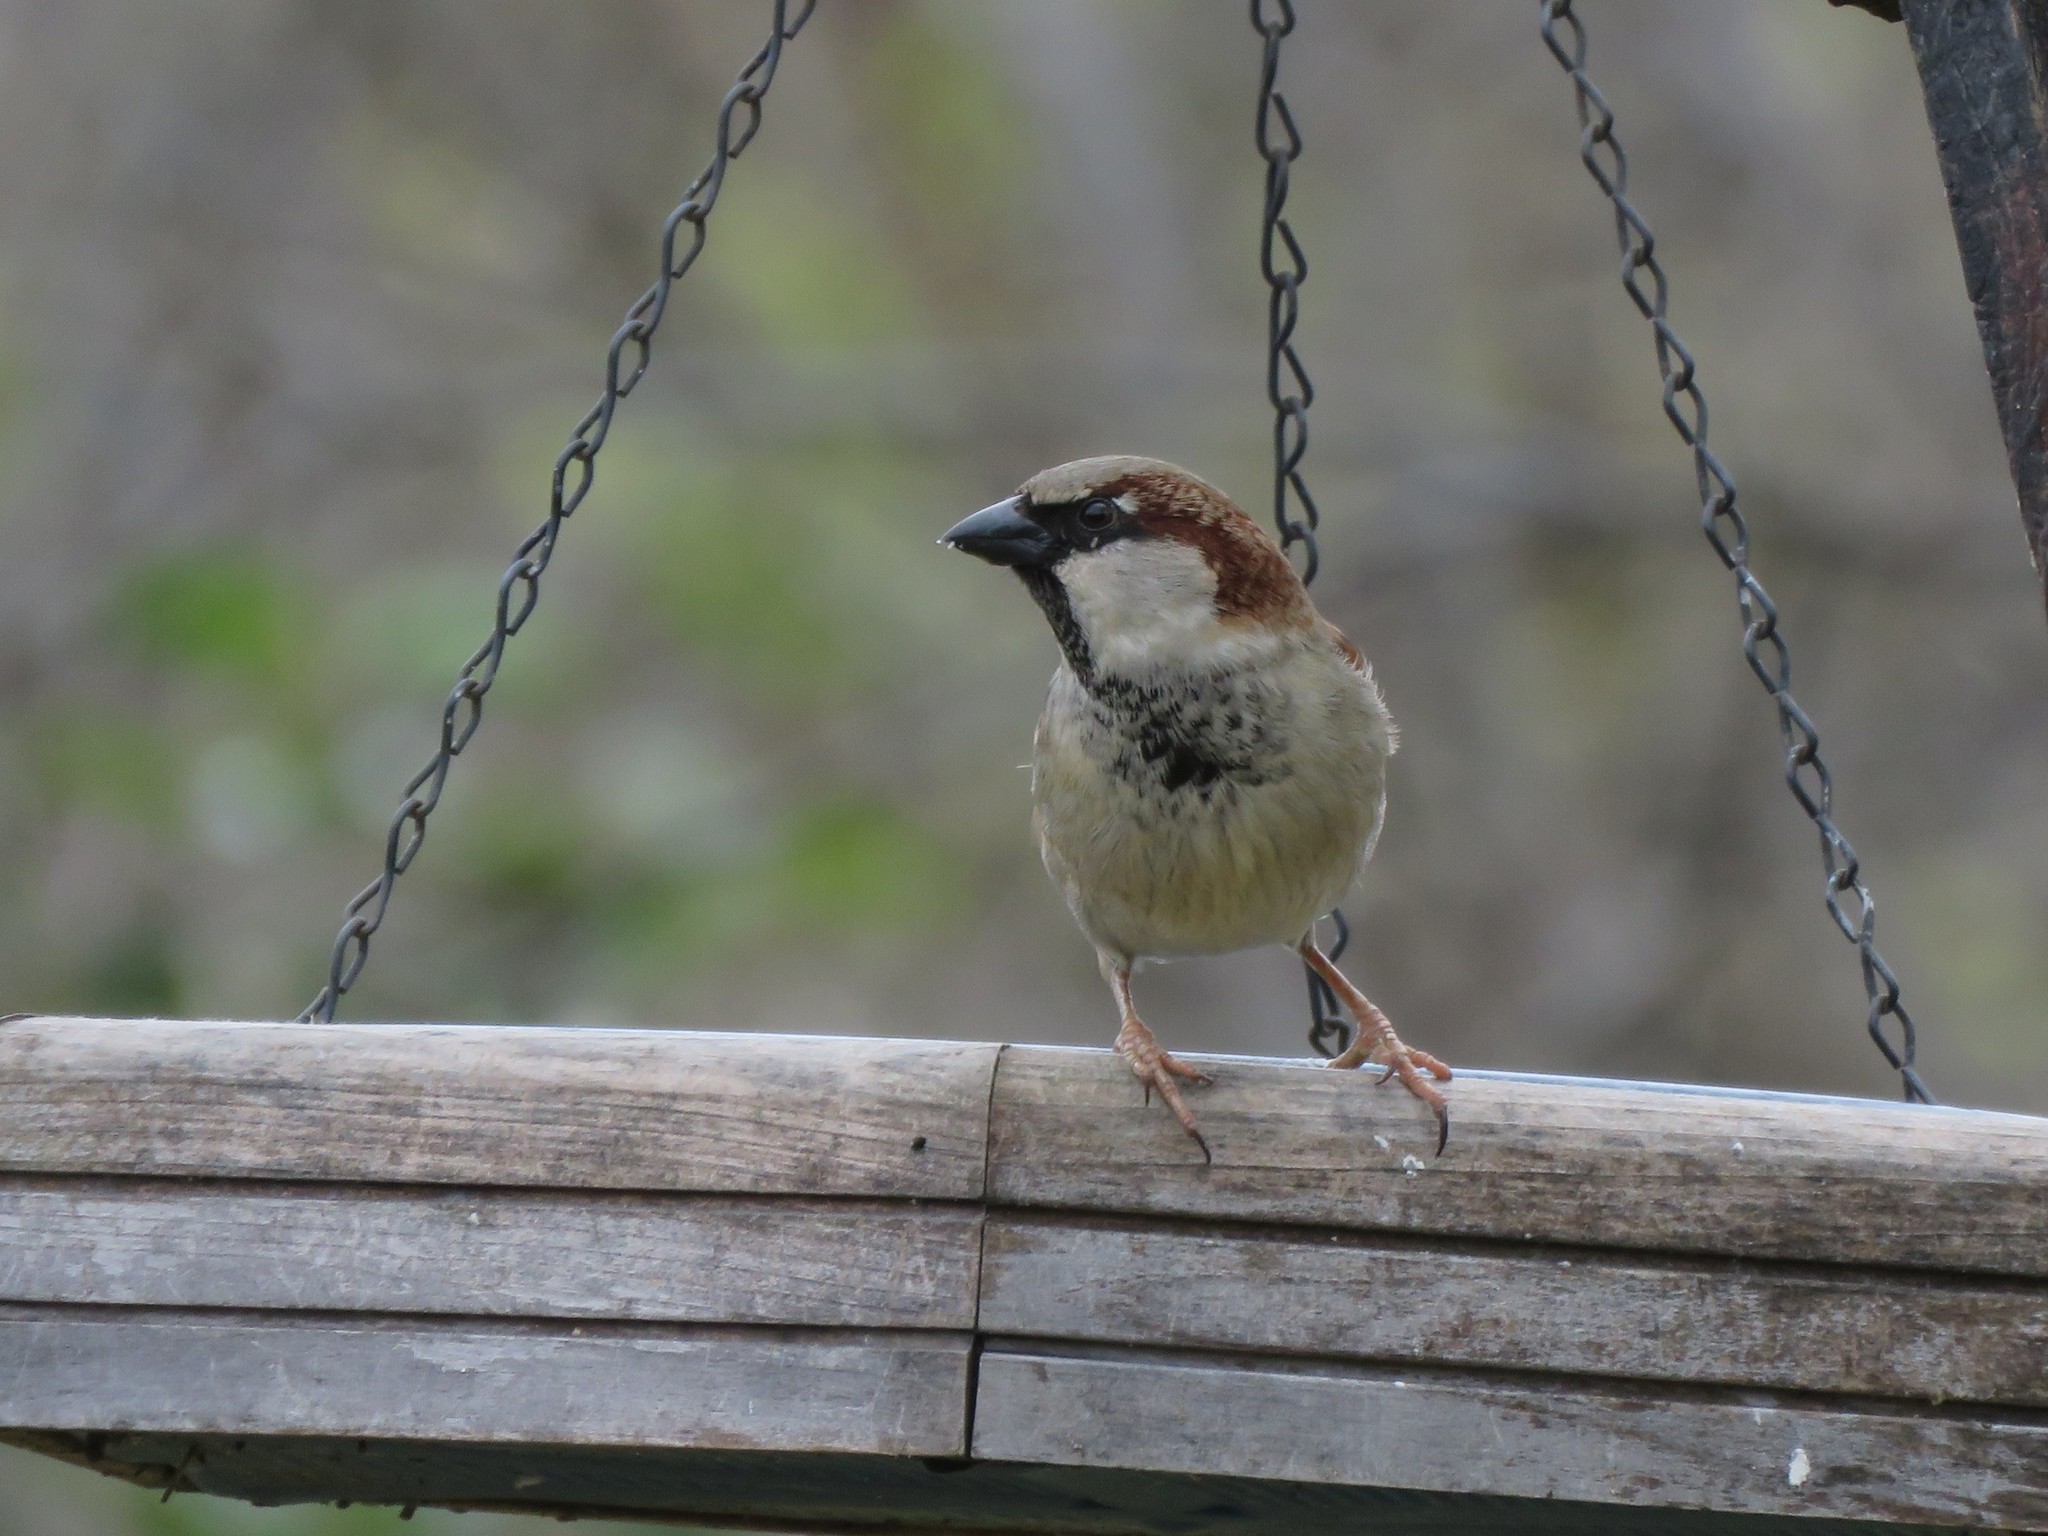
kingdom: Animalia
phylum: Chordata
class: Aves
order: Passeriformes
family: Passeridae
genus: Passer
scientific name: Passer domesticus
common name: House sparrow
